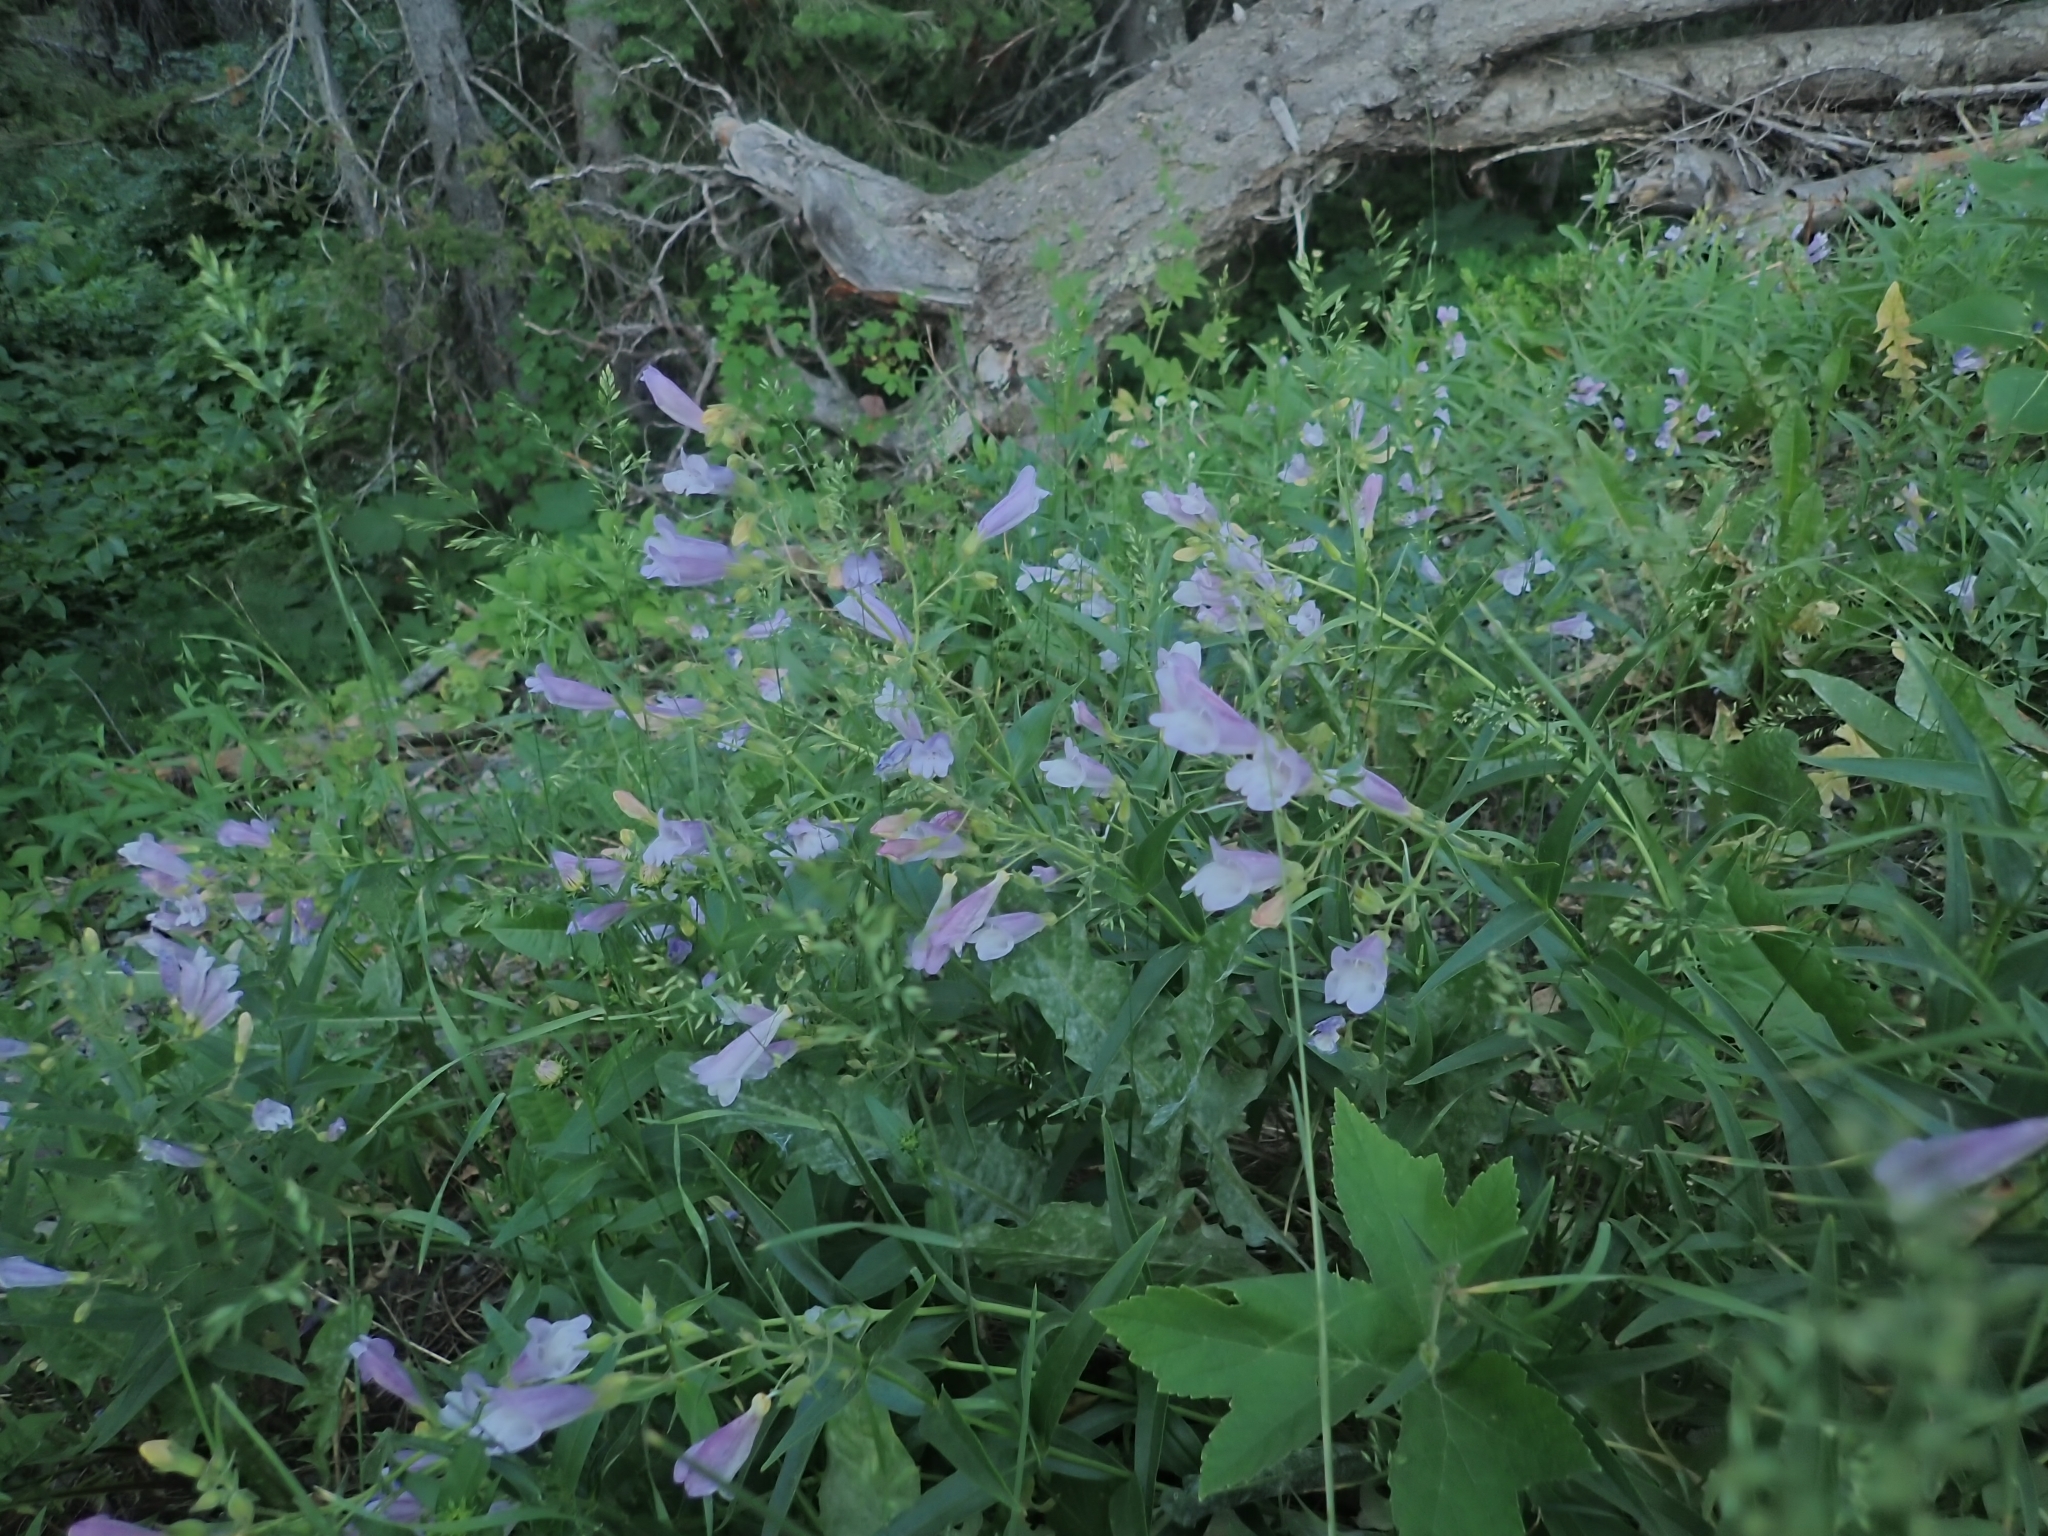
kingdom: Plantae
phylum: Tracheophyta
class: Magnoliopsida
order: Lamiales
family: Plantaginaceae
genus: Penstemon
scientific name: Penstemon lyalli
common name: Lyall's beardtongue
